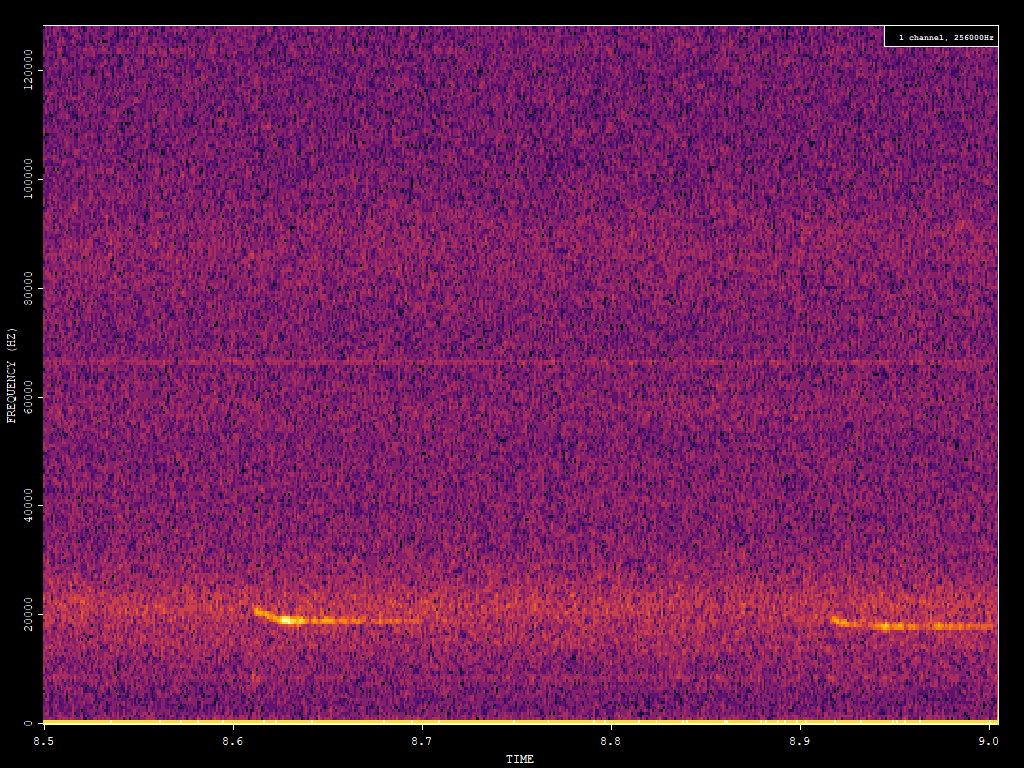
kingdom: Animalia
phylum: Chordata
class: Mammalia
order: Chiroptera
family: Vespertilionidae
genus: Nyctalus
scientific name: Nyctalus noctula
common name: Noctule
